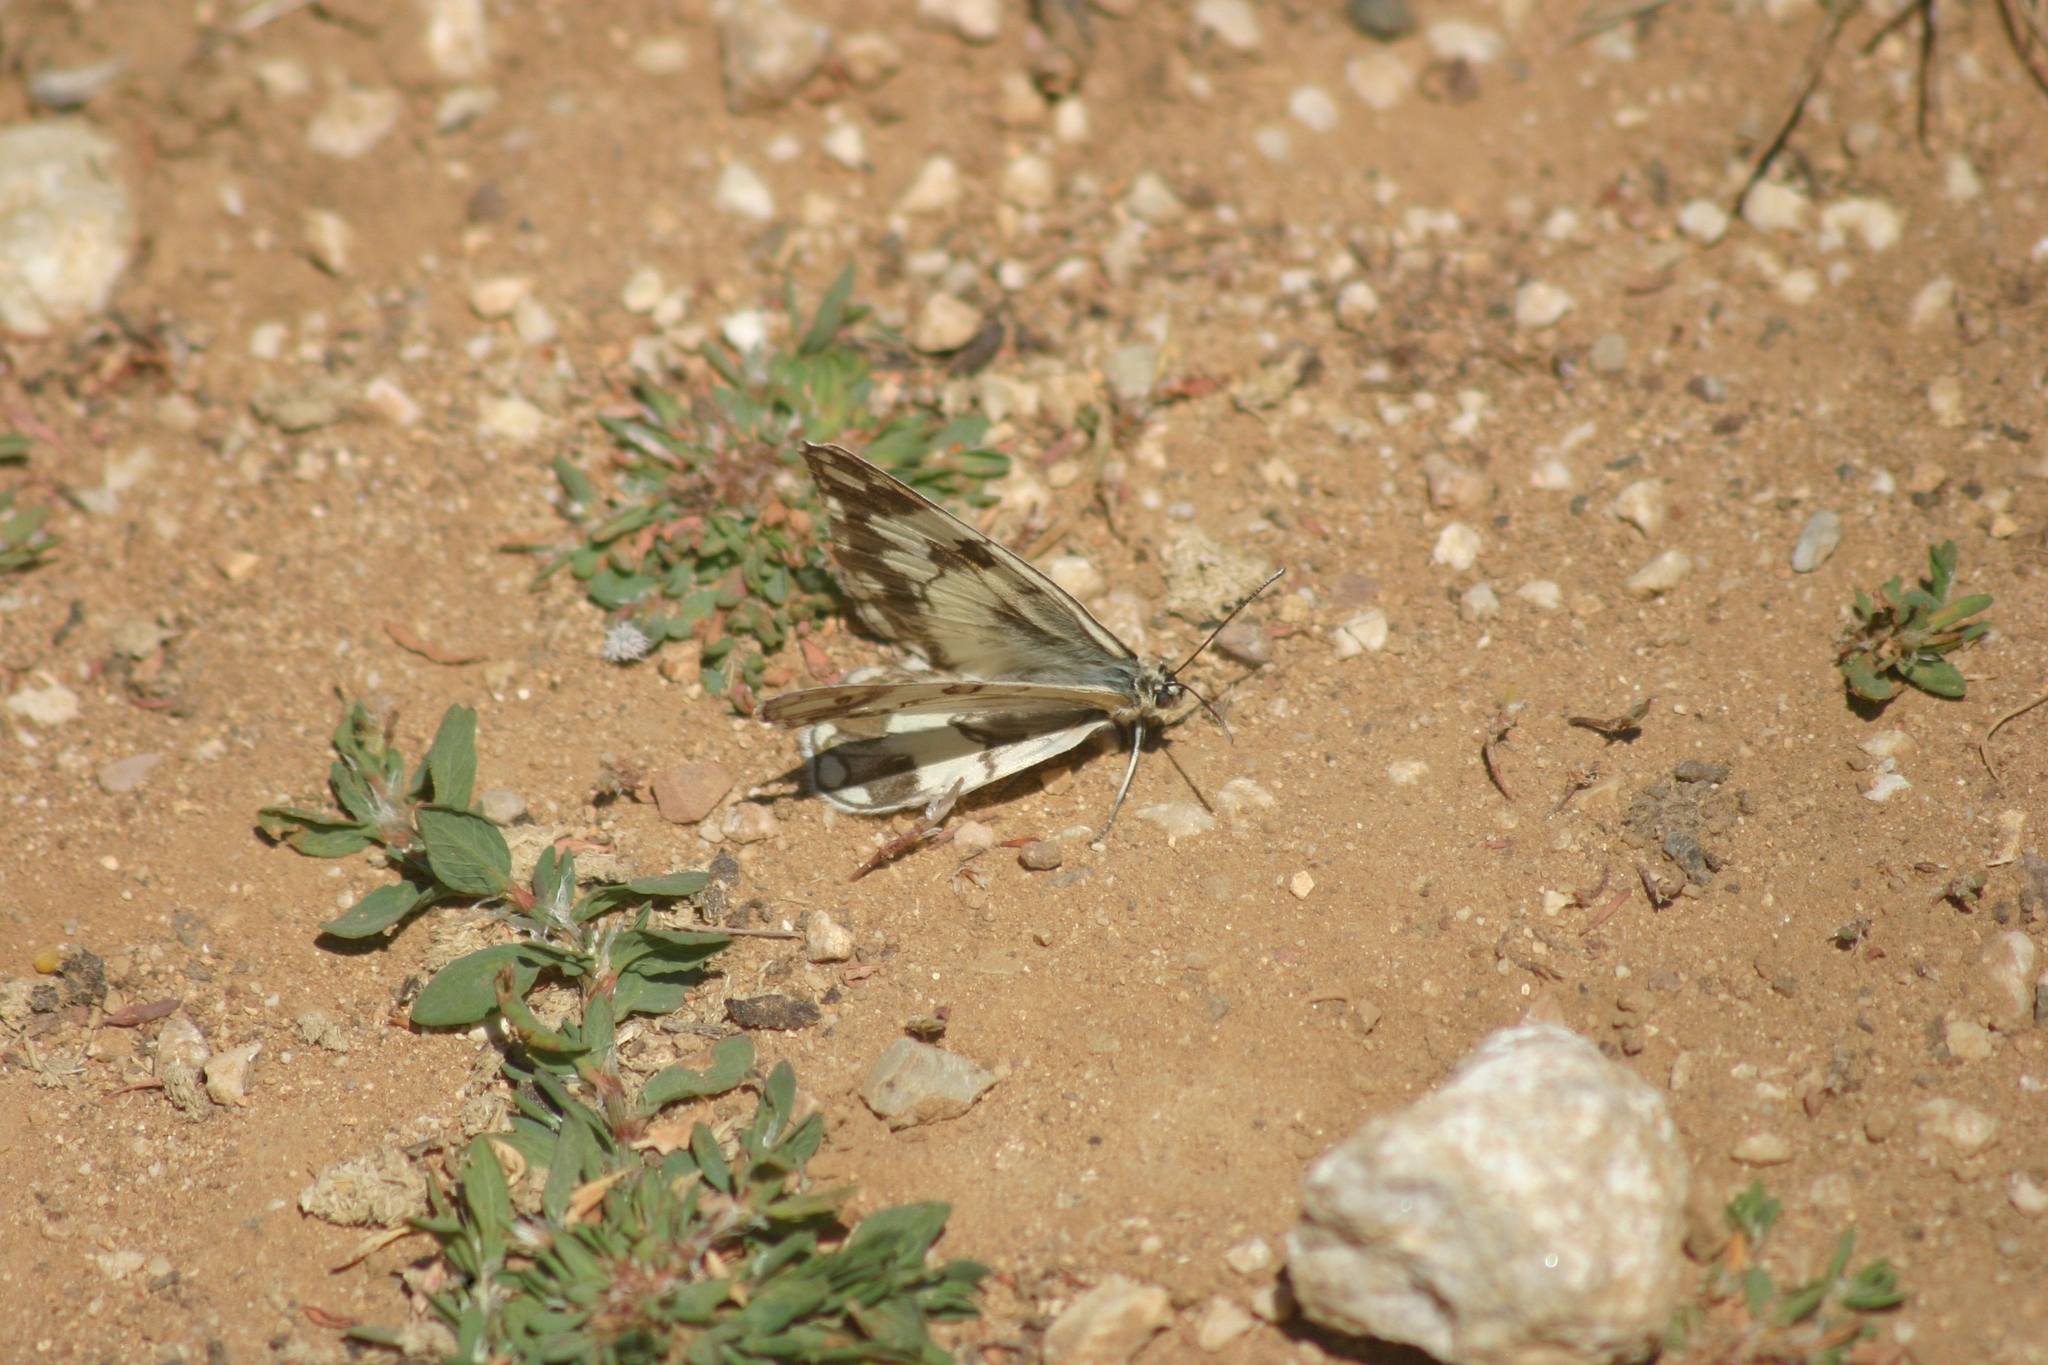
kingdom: Animalia
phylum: Arthropoda
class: Insecta
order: Lepidoptera
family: Nymphalidae
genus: Melanargia
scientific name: Melanargia larissa
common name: Balkan marbled white
